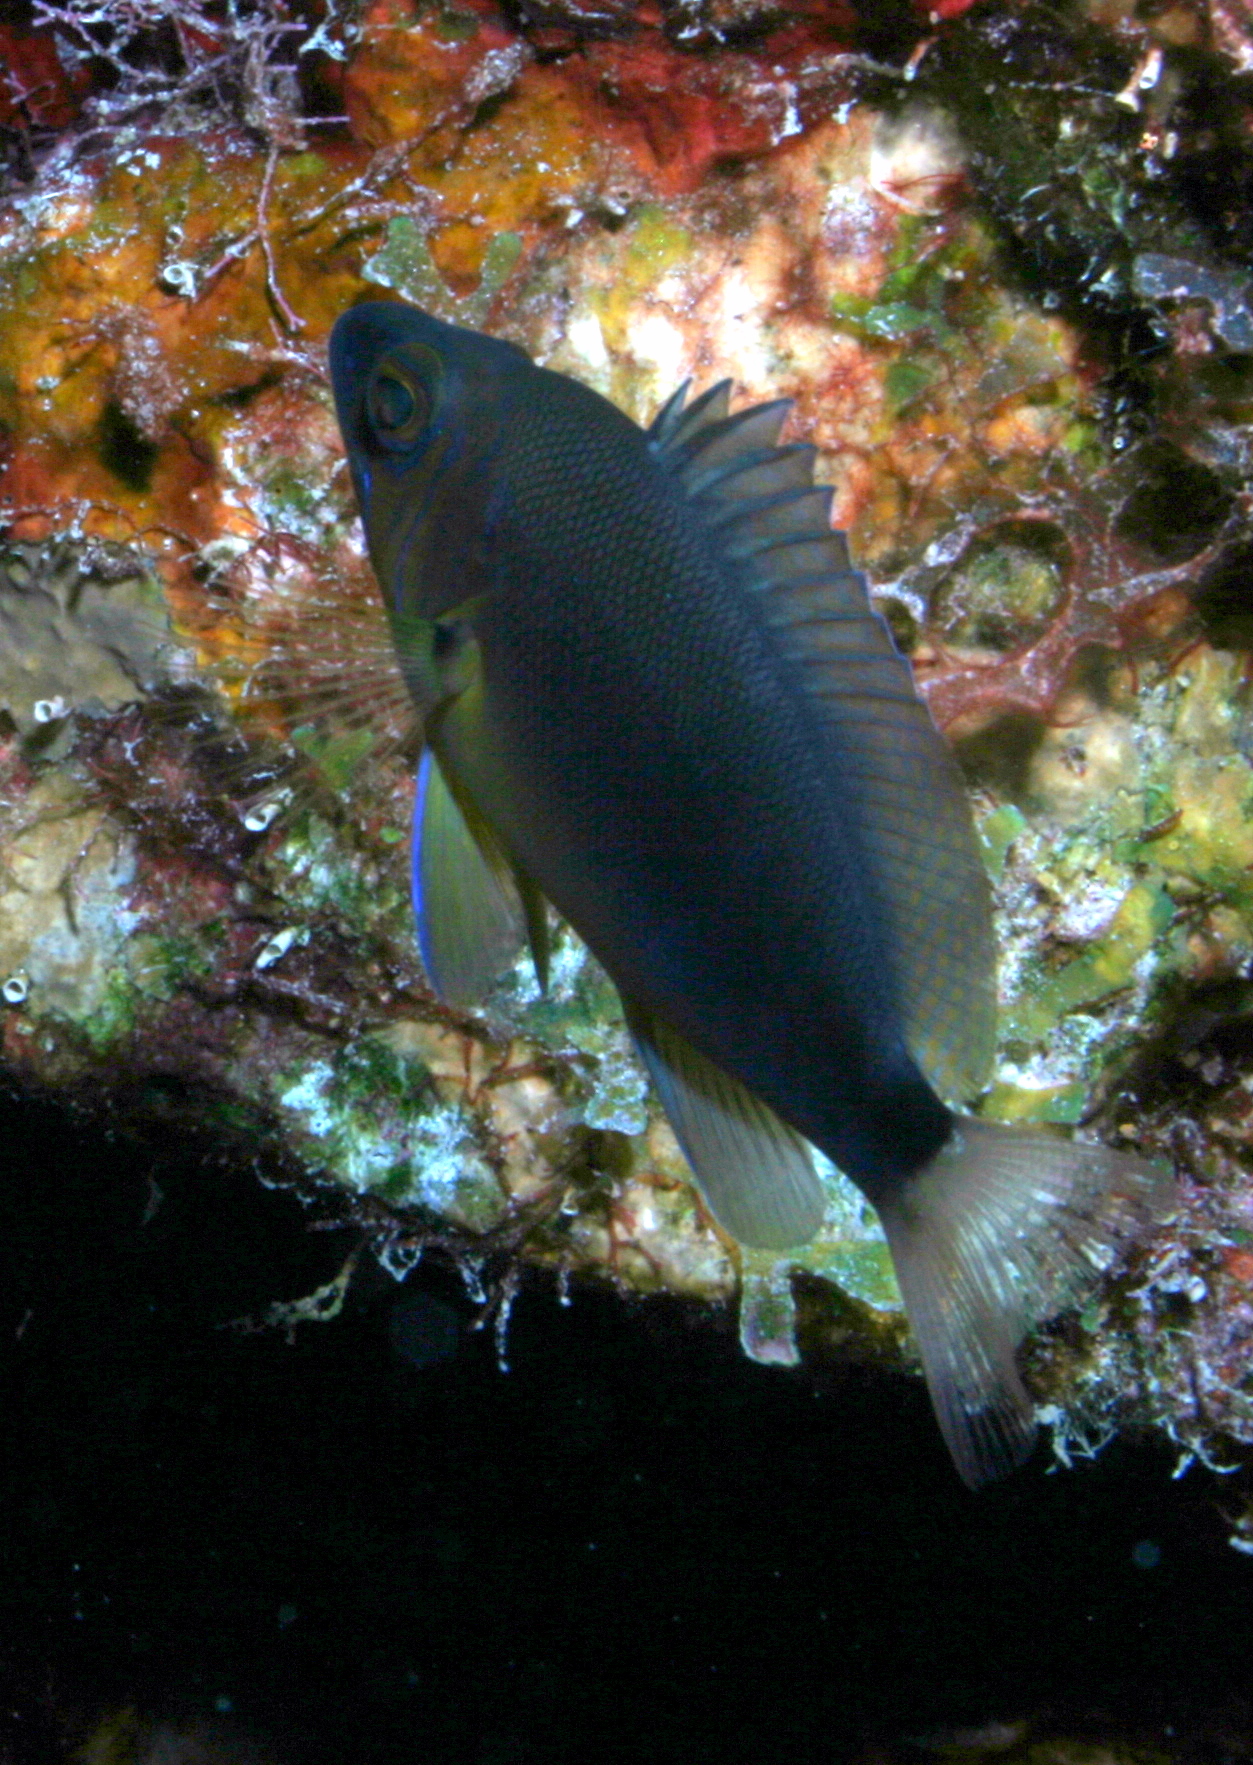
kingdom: Animalia
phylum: Chordata
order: Perciformes
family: Serranidae
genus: Hypoplectrus
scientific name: Hypoplectrus aberrans
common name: Yellowbelly hamlet
